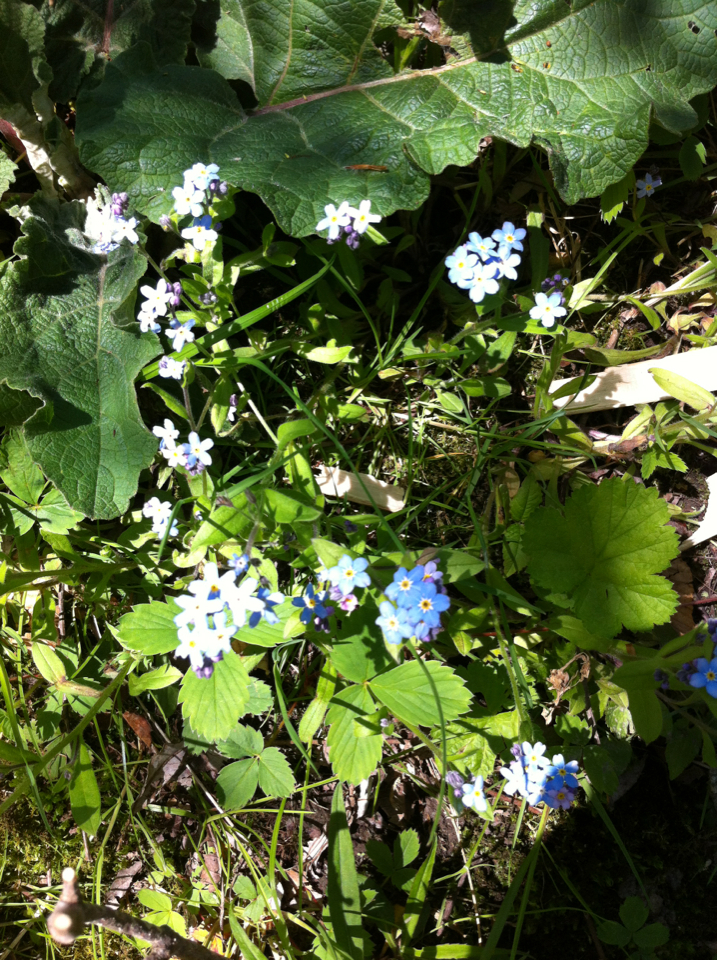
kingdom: Plantae
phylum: Tracheophyta
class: Magnoliopsida
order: Boraginales
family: Boraginaceae
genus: Myosotis
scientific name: Myosotis sylvatica
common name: Wood forget-me-not
